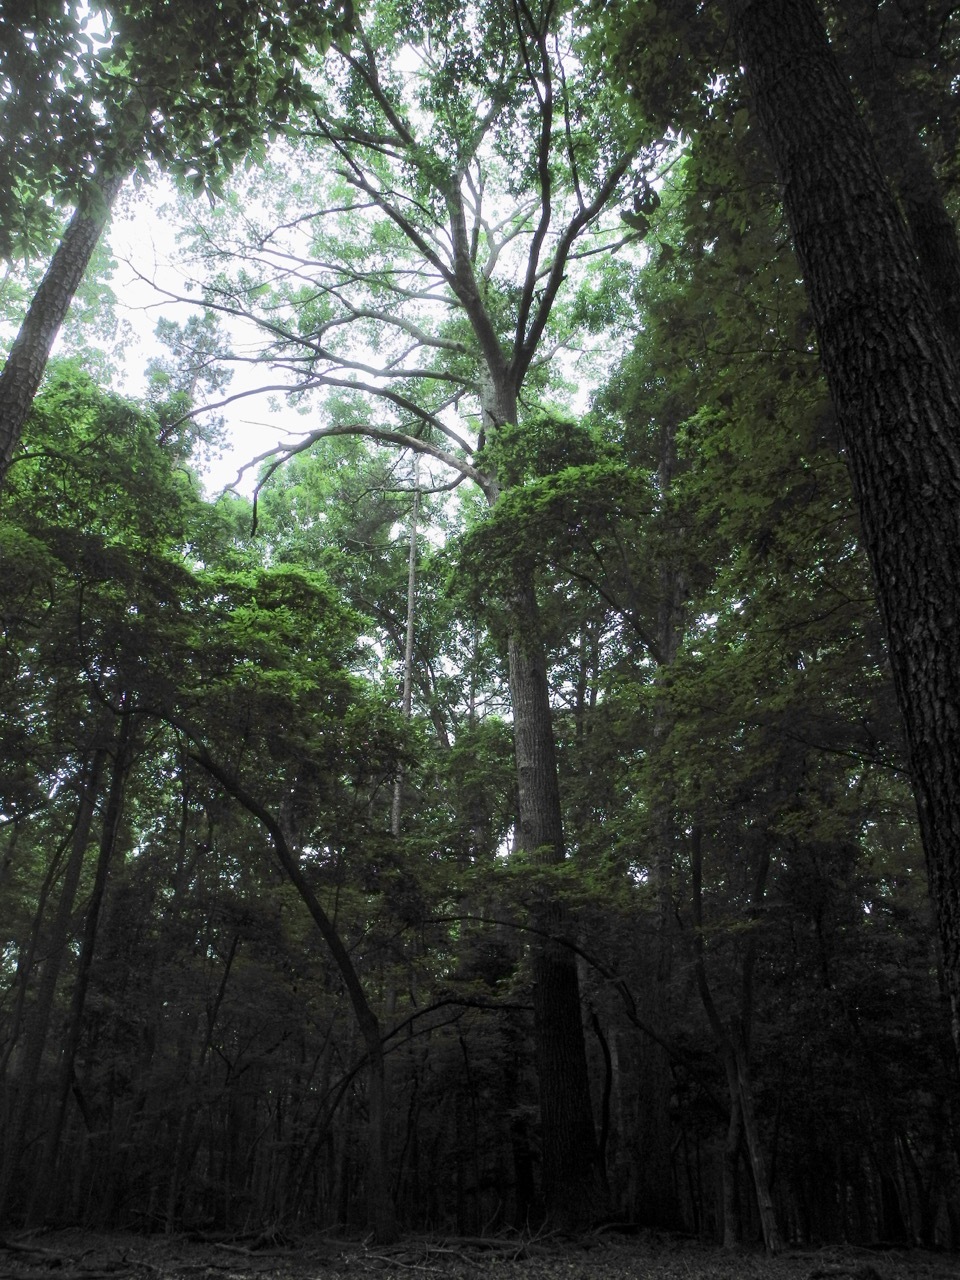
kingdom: Plantae
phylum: Tracheophyta
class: Magnoliopsida
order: Fagales
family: Fagaceae
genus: Quercus
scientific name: Quercus rubra
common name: Red oak
